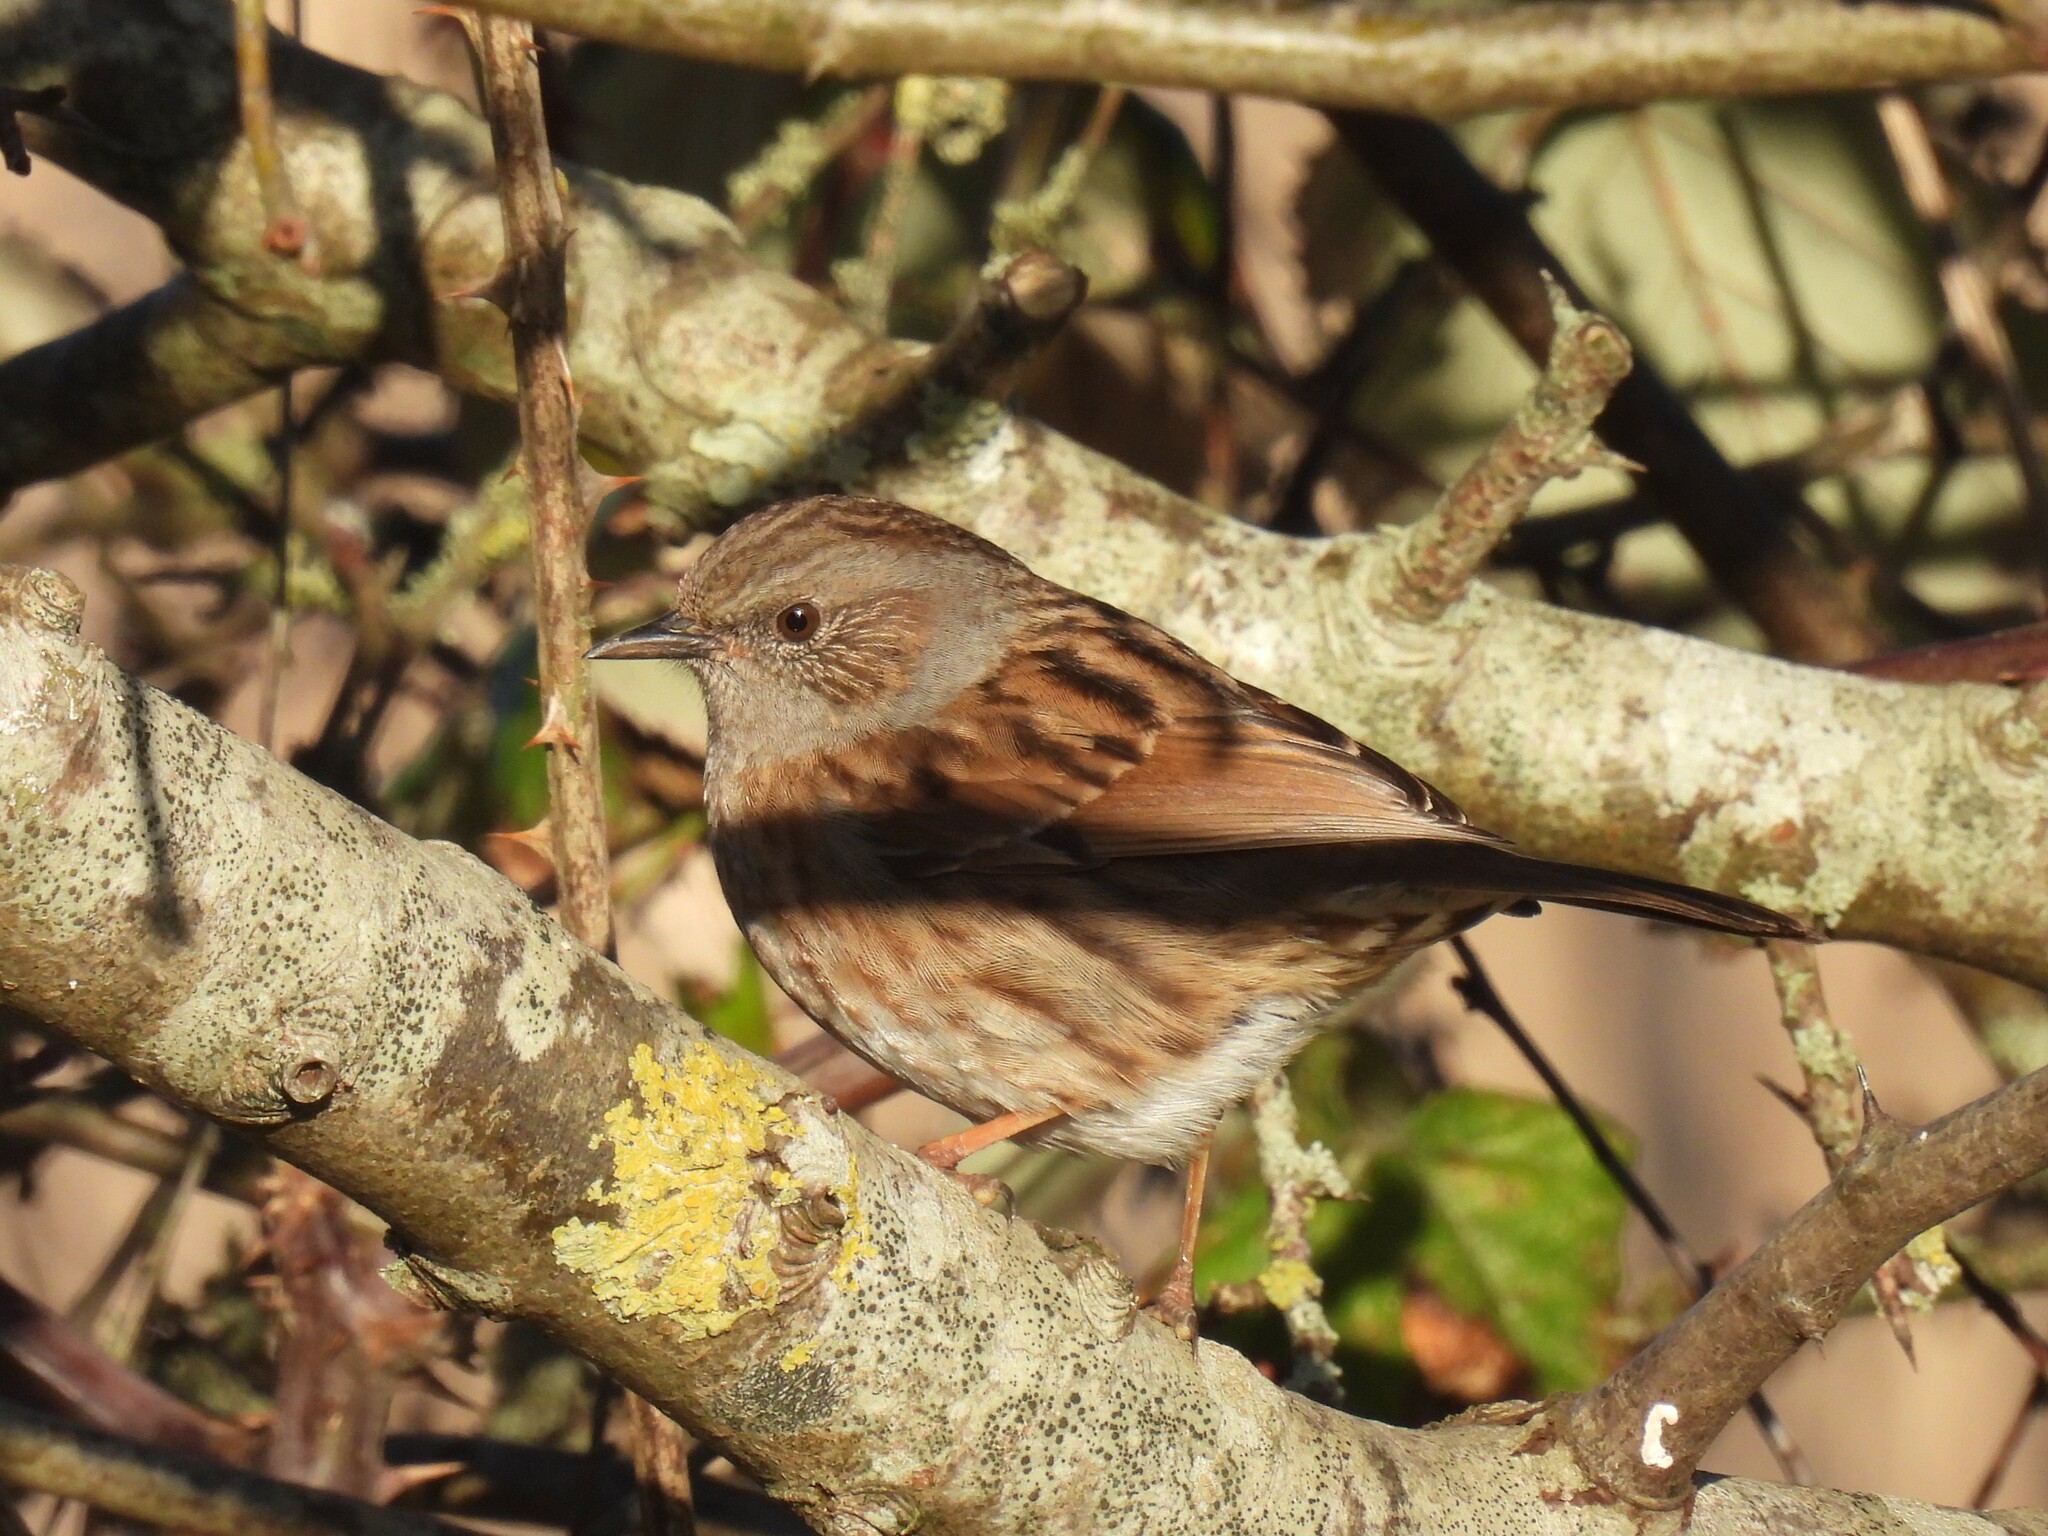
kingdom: Animalia
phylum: Chordata
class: Aves
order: Passeriformes
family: Prunellidae
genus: Prunella
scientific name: Prunella modularis
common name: Dunnock
